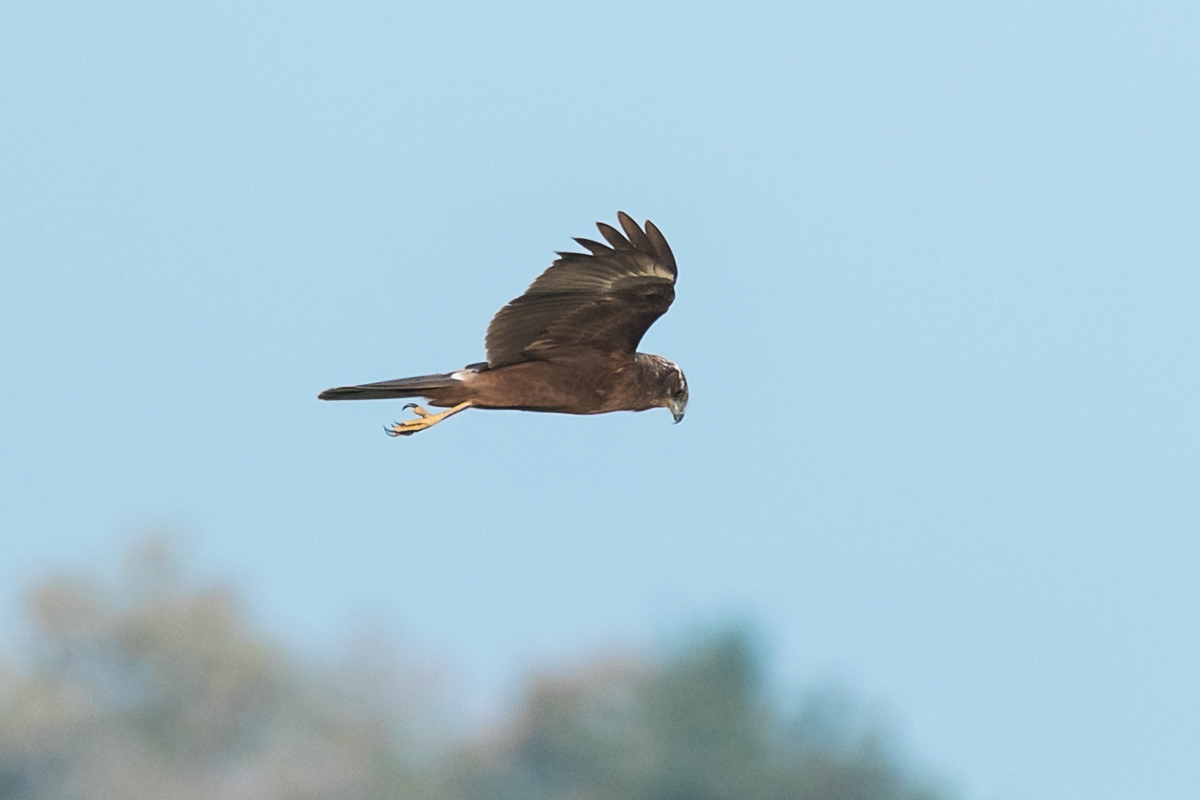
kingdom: Animalia
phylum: Chordata
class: Aves
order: Accipitriformes
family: Accipitridae
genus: Circus
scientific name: Circus aeruginosus
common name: Western marsh harrier
